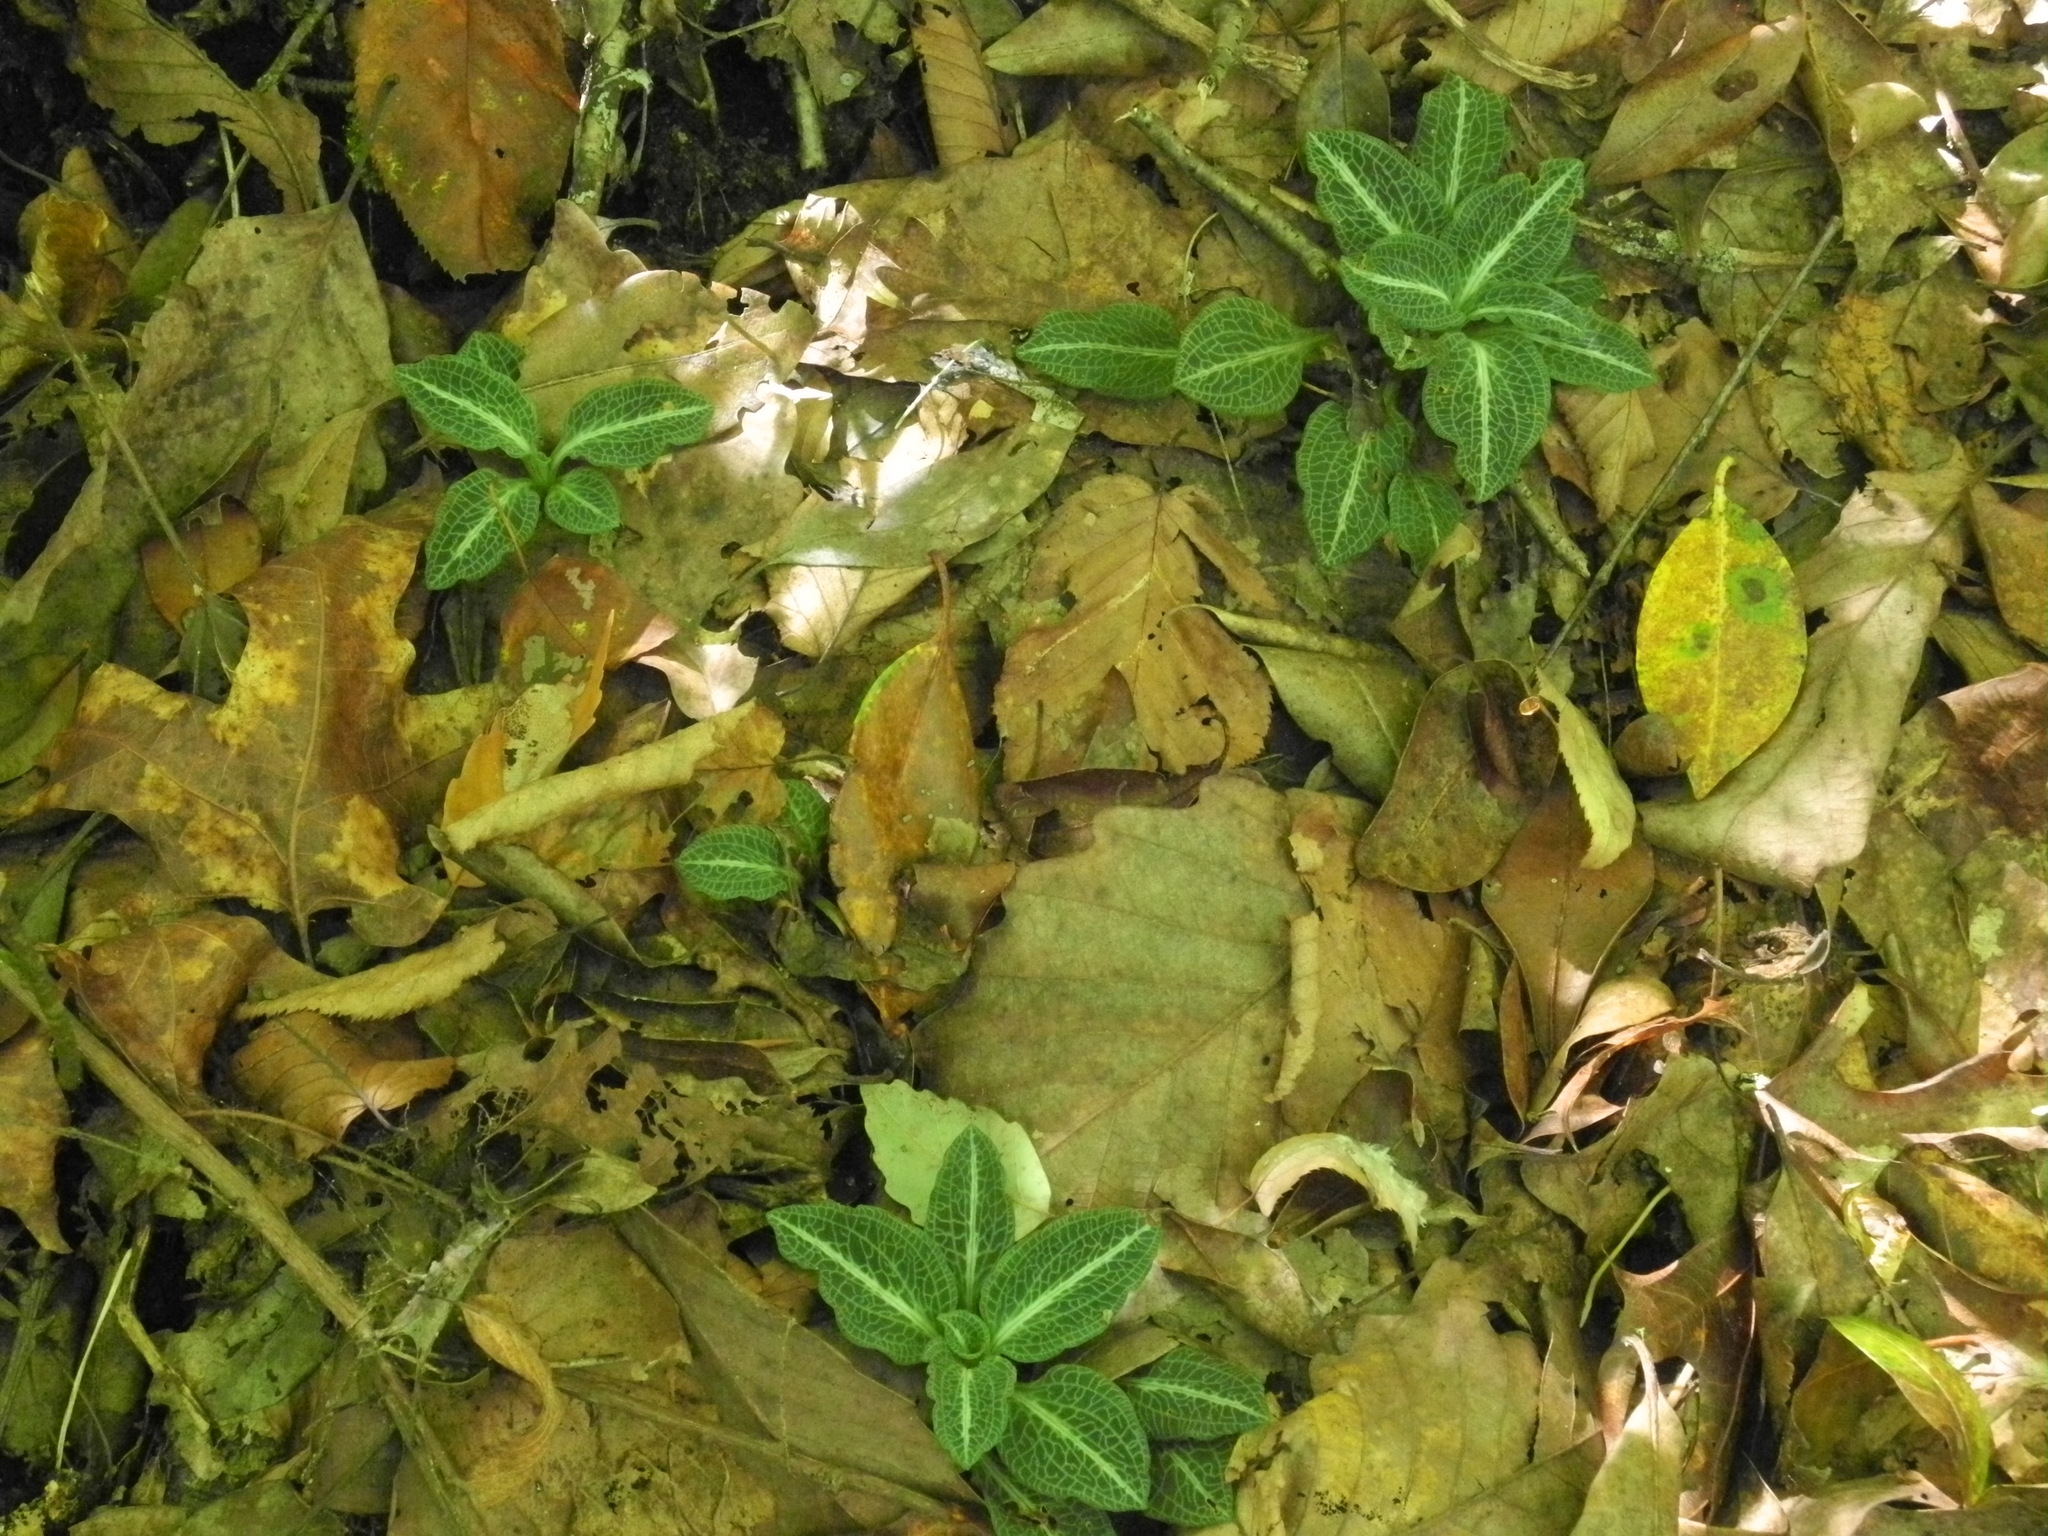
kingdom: Plantae
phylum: Tracheophyta
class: Liliopsida
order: Asparagales
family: Orchidaceae
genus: Goodyera
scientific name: Goodyera pubescens
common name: Downy rattlesnake-plantain
